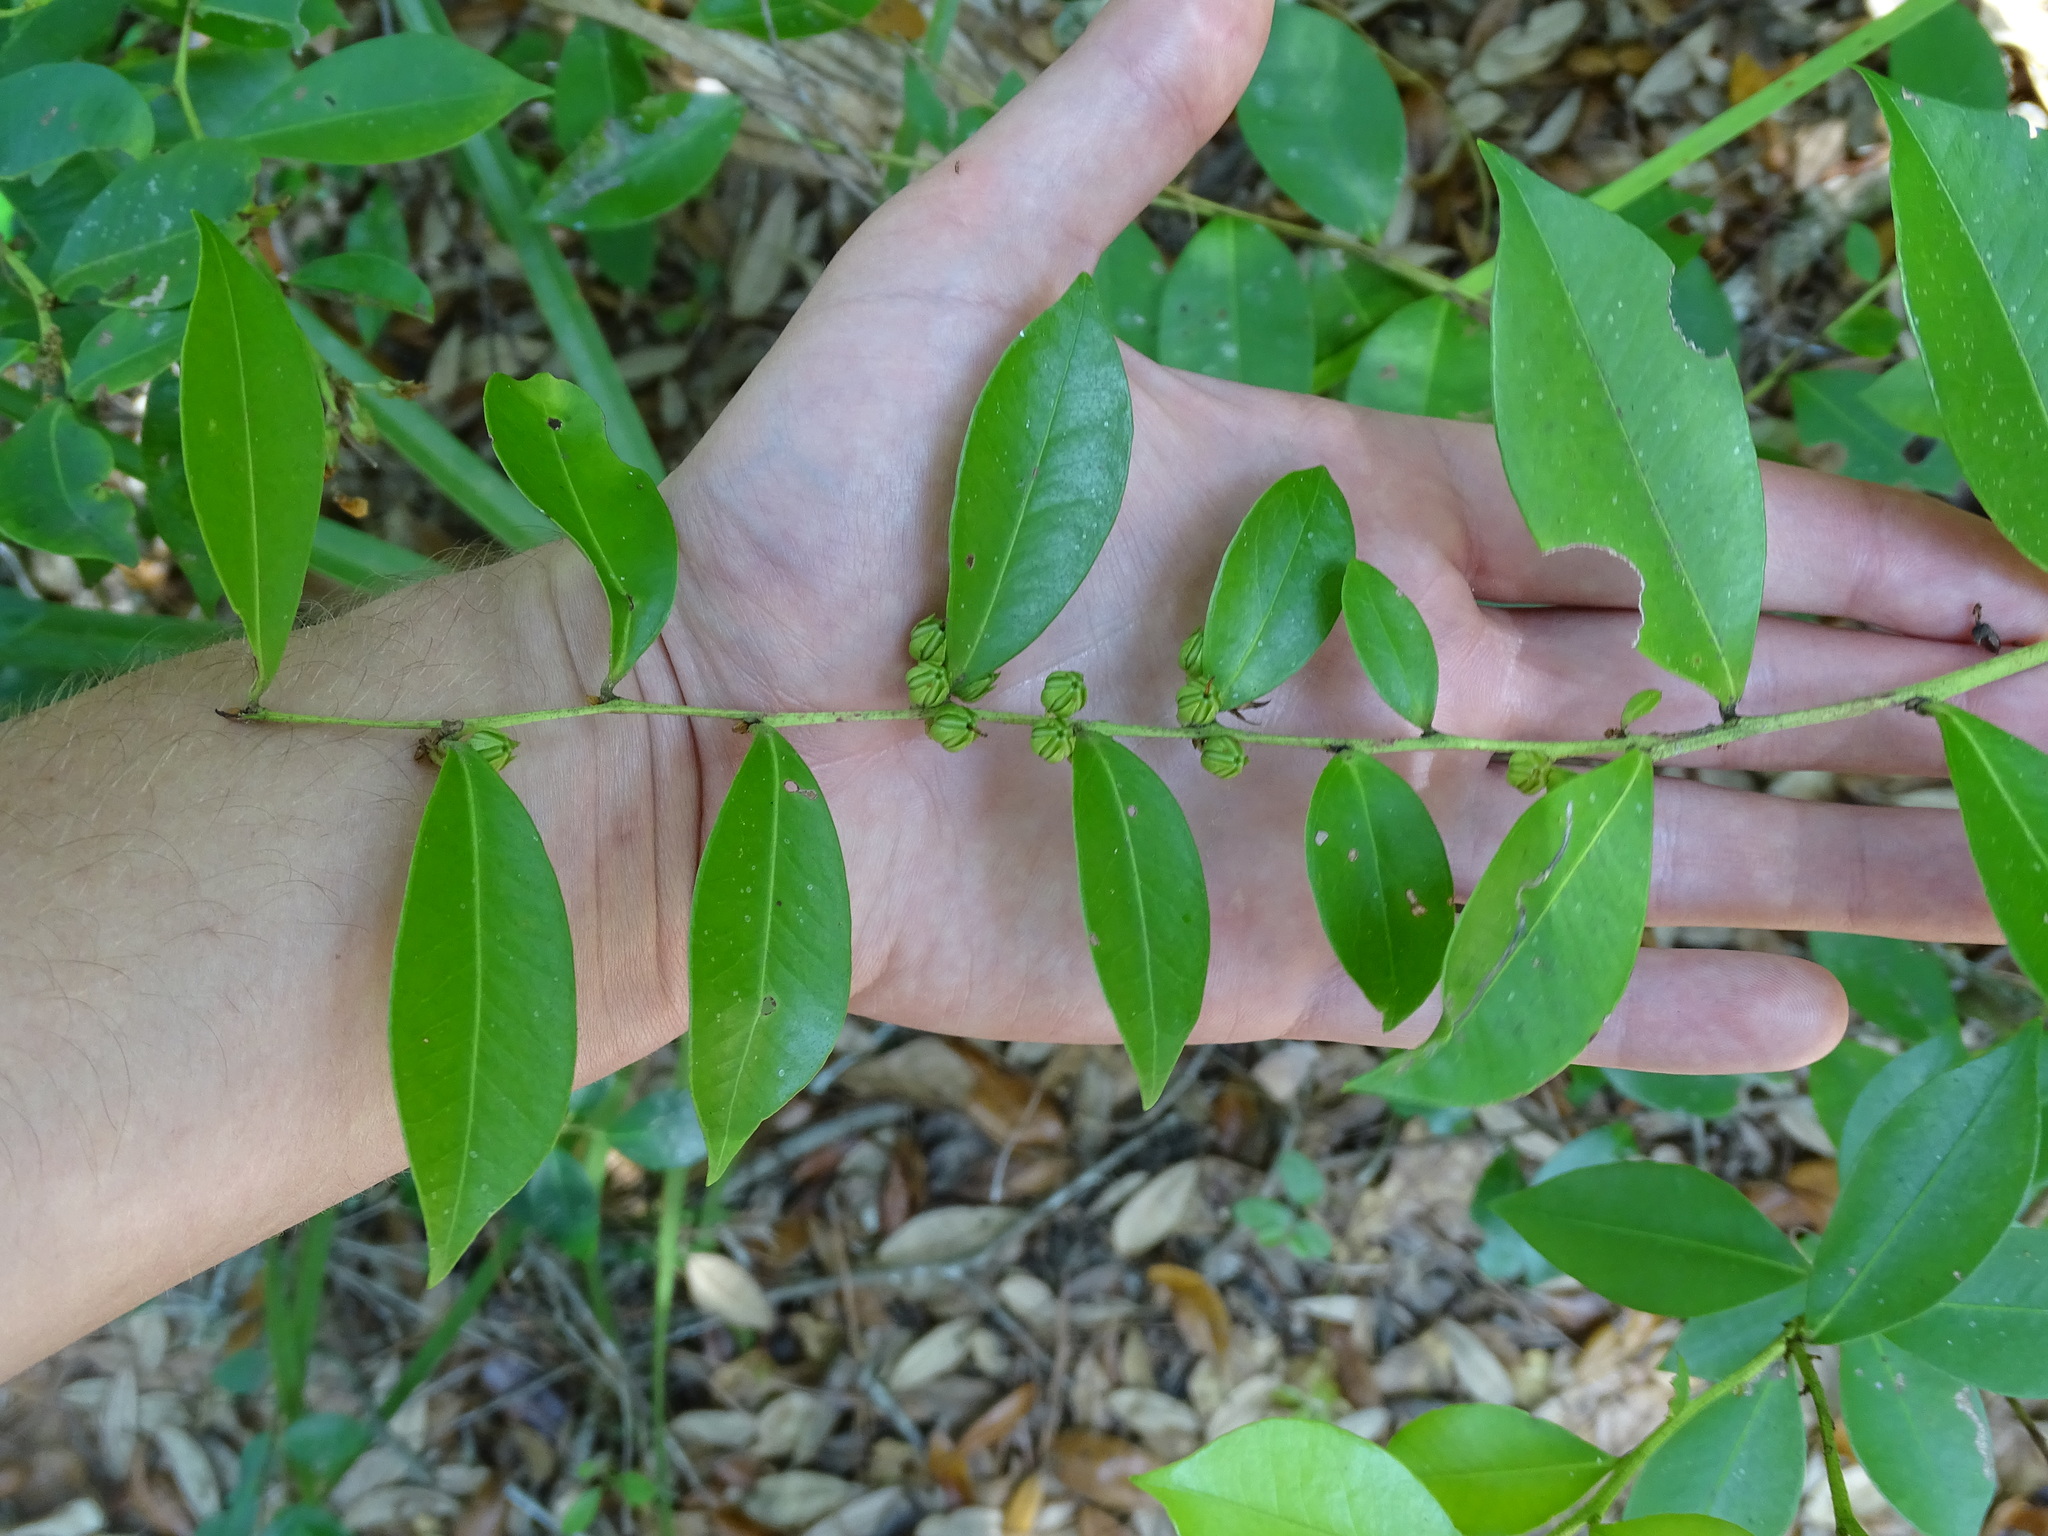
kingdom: Plantae
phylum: Tracheophyta
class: Magnoliopsida
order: Ericales
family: Ericaceae
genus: Lyonia
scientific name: Lyonia lucida
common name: Fetterbush
